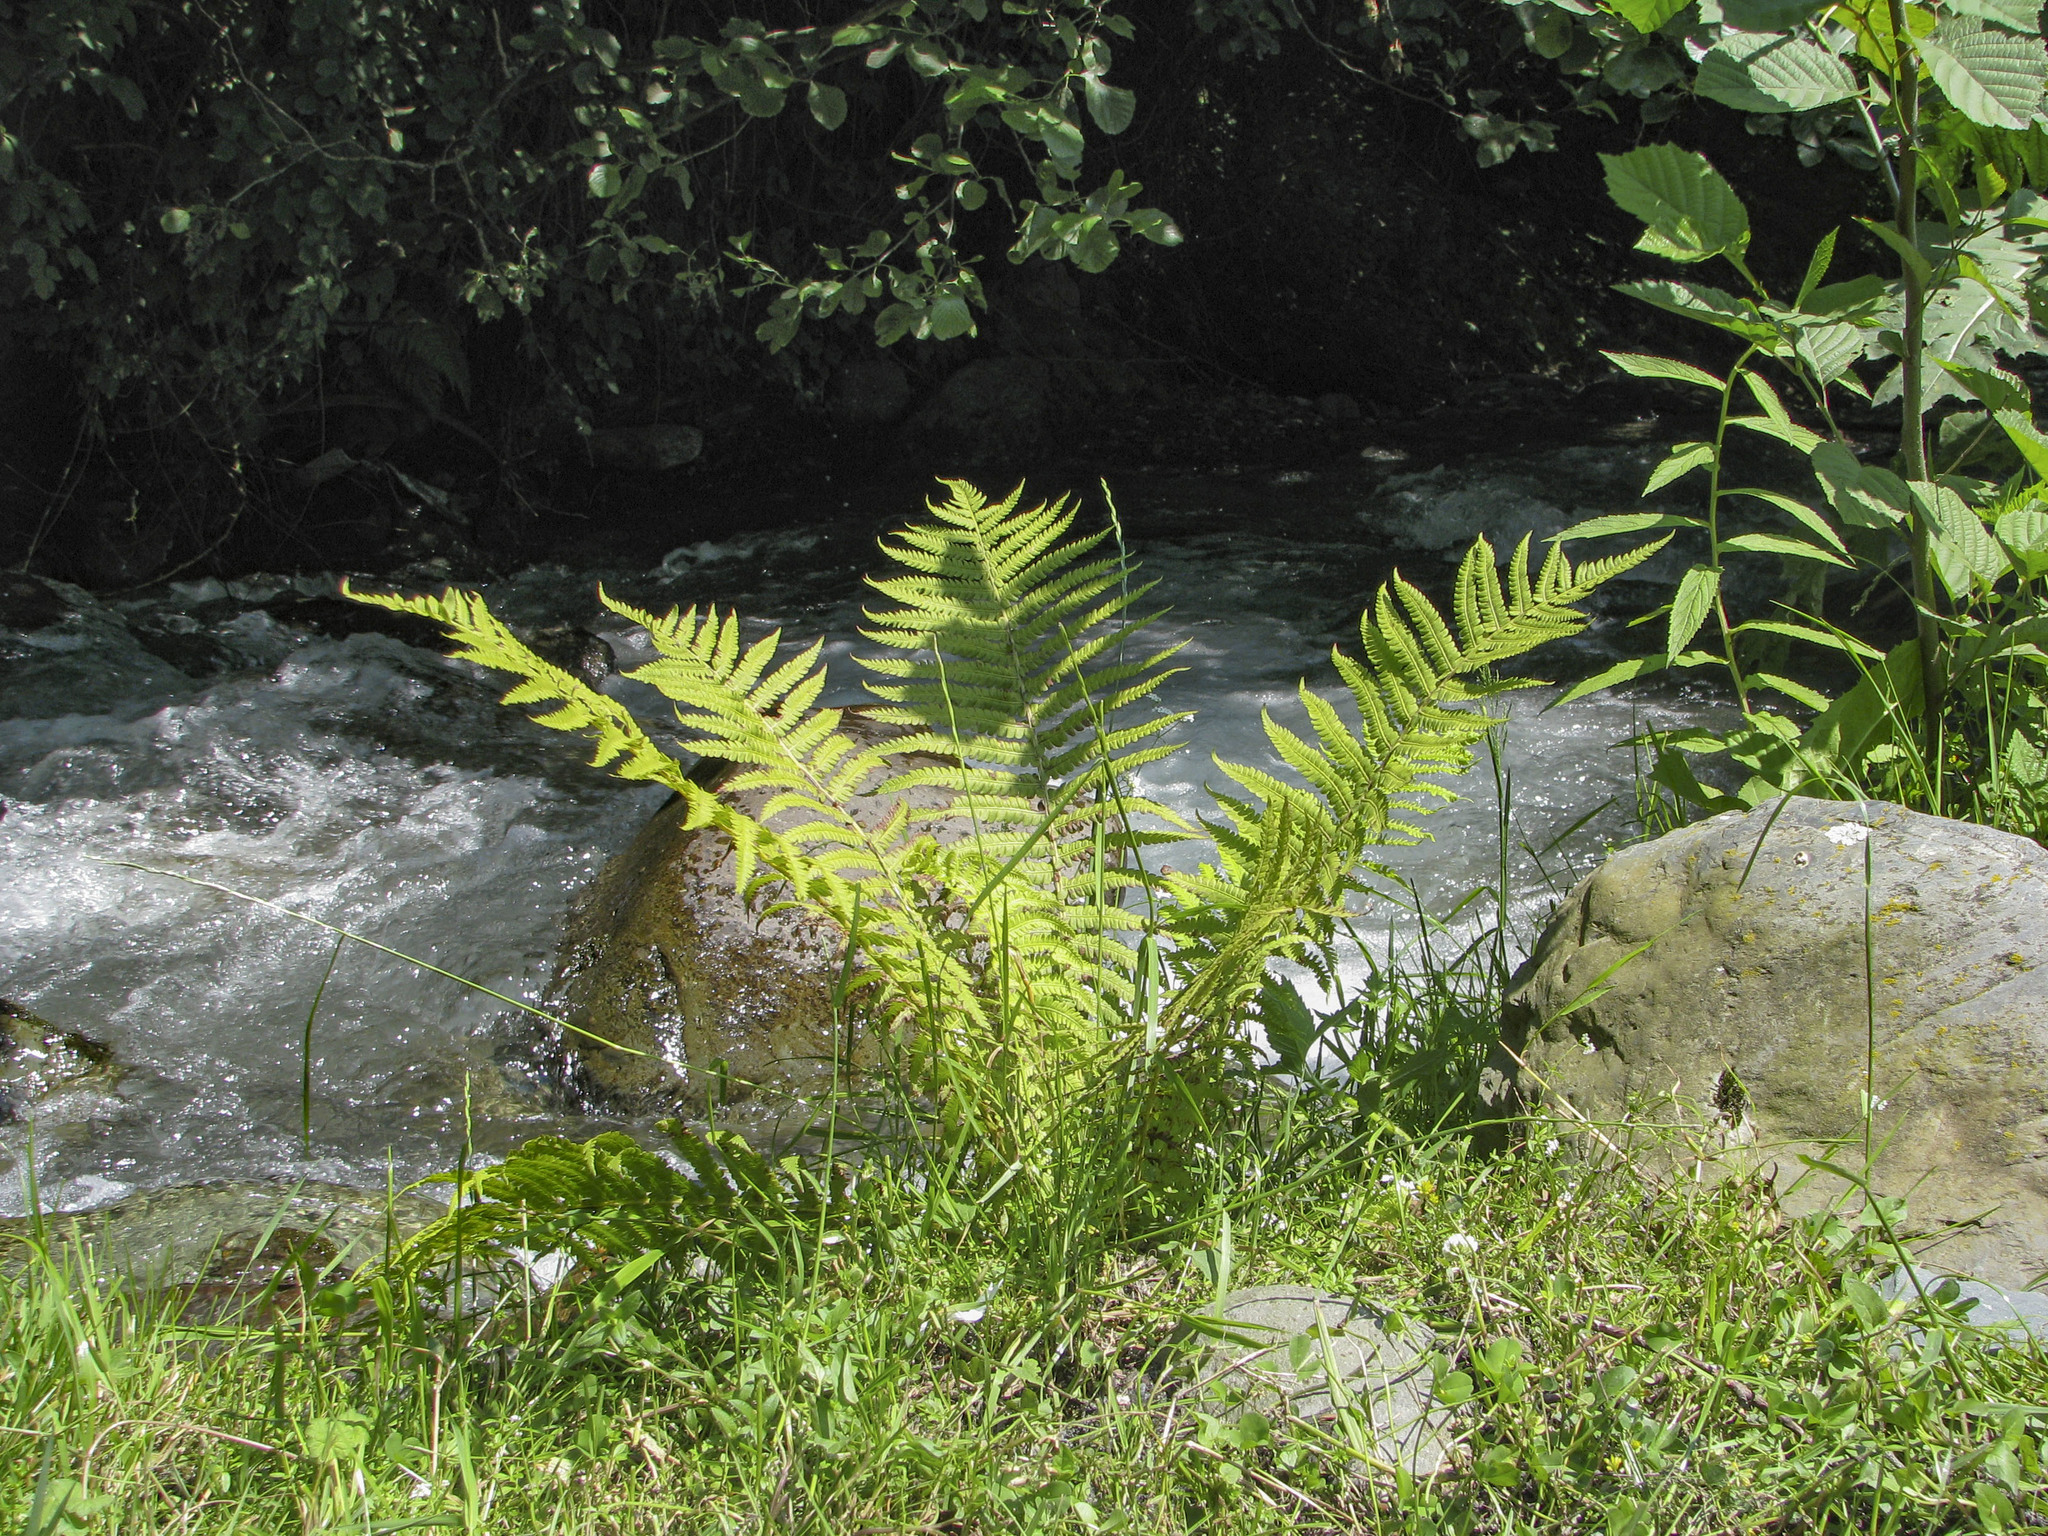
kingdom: Plantae
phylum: Tracheophyta
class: Polypodiopsida
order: Polypodiales
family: Onocleaceae
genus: Matteuccia
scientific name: Matteuccia struthiopteris
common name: Ostrich fern
